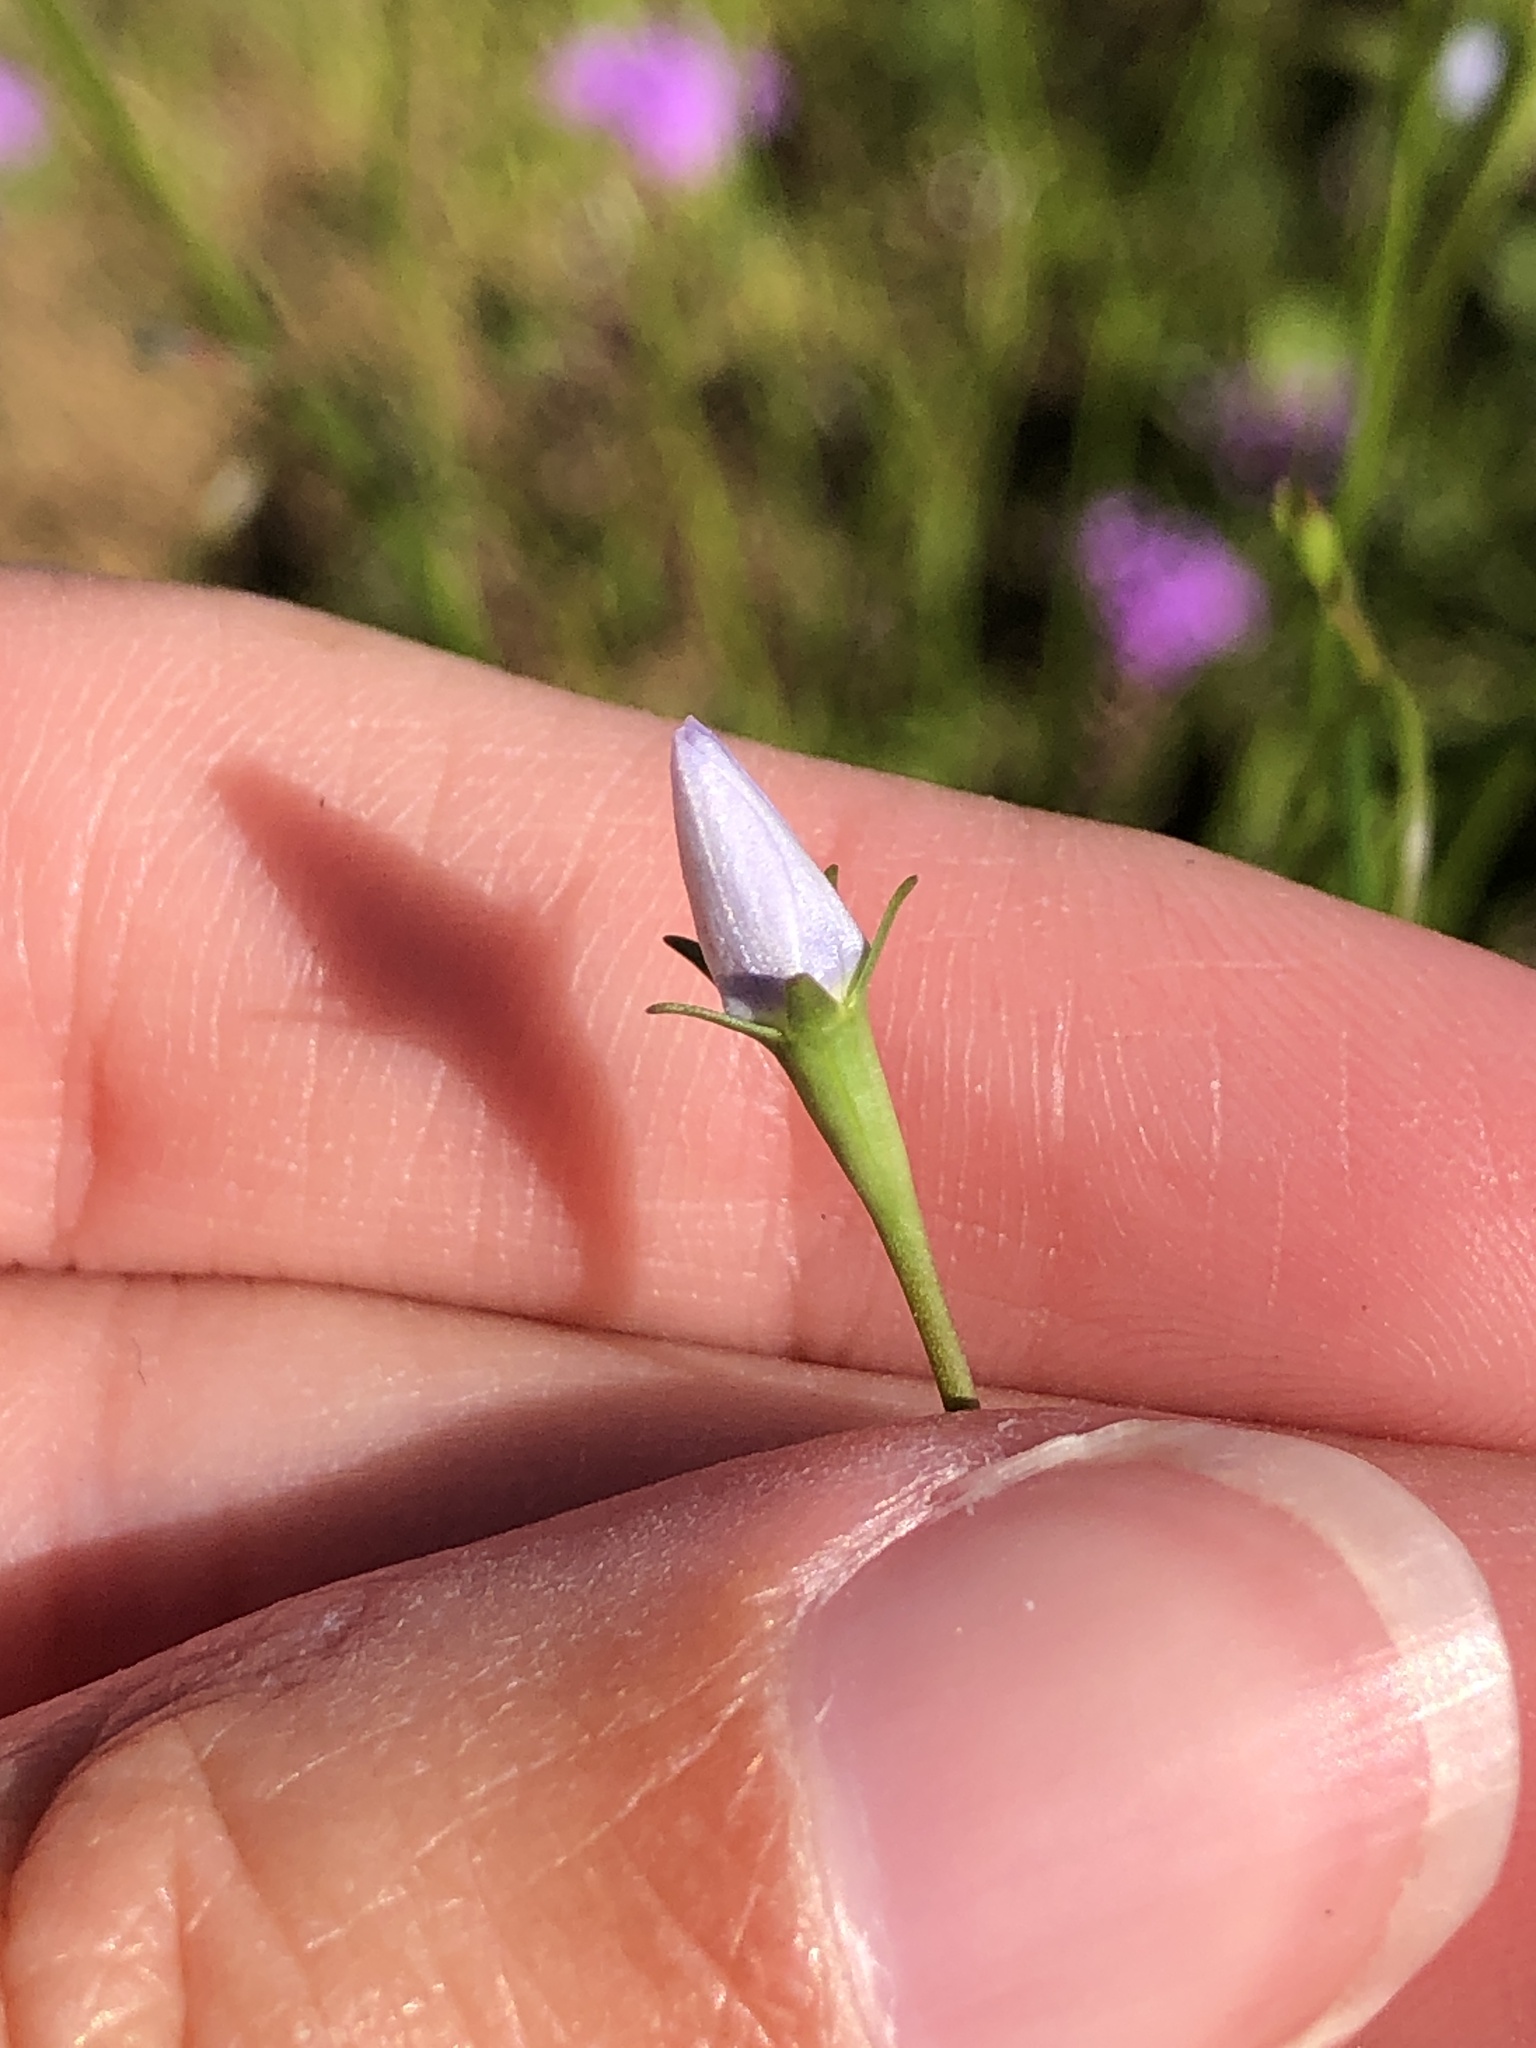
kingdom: Plantae
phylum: Tracheophyta
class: Magnoliopsida
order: Asterales
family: Campanulaceae
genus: Wahlenbergia
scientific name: Wahlenbergia marginata
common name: Southern rockbell
